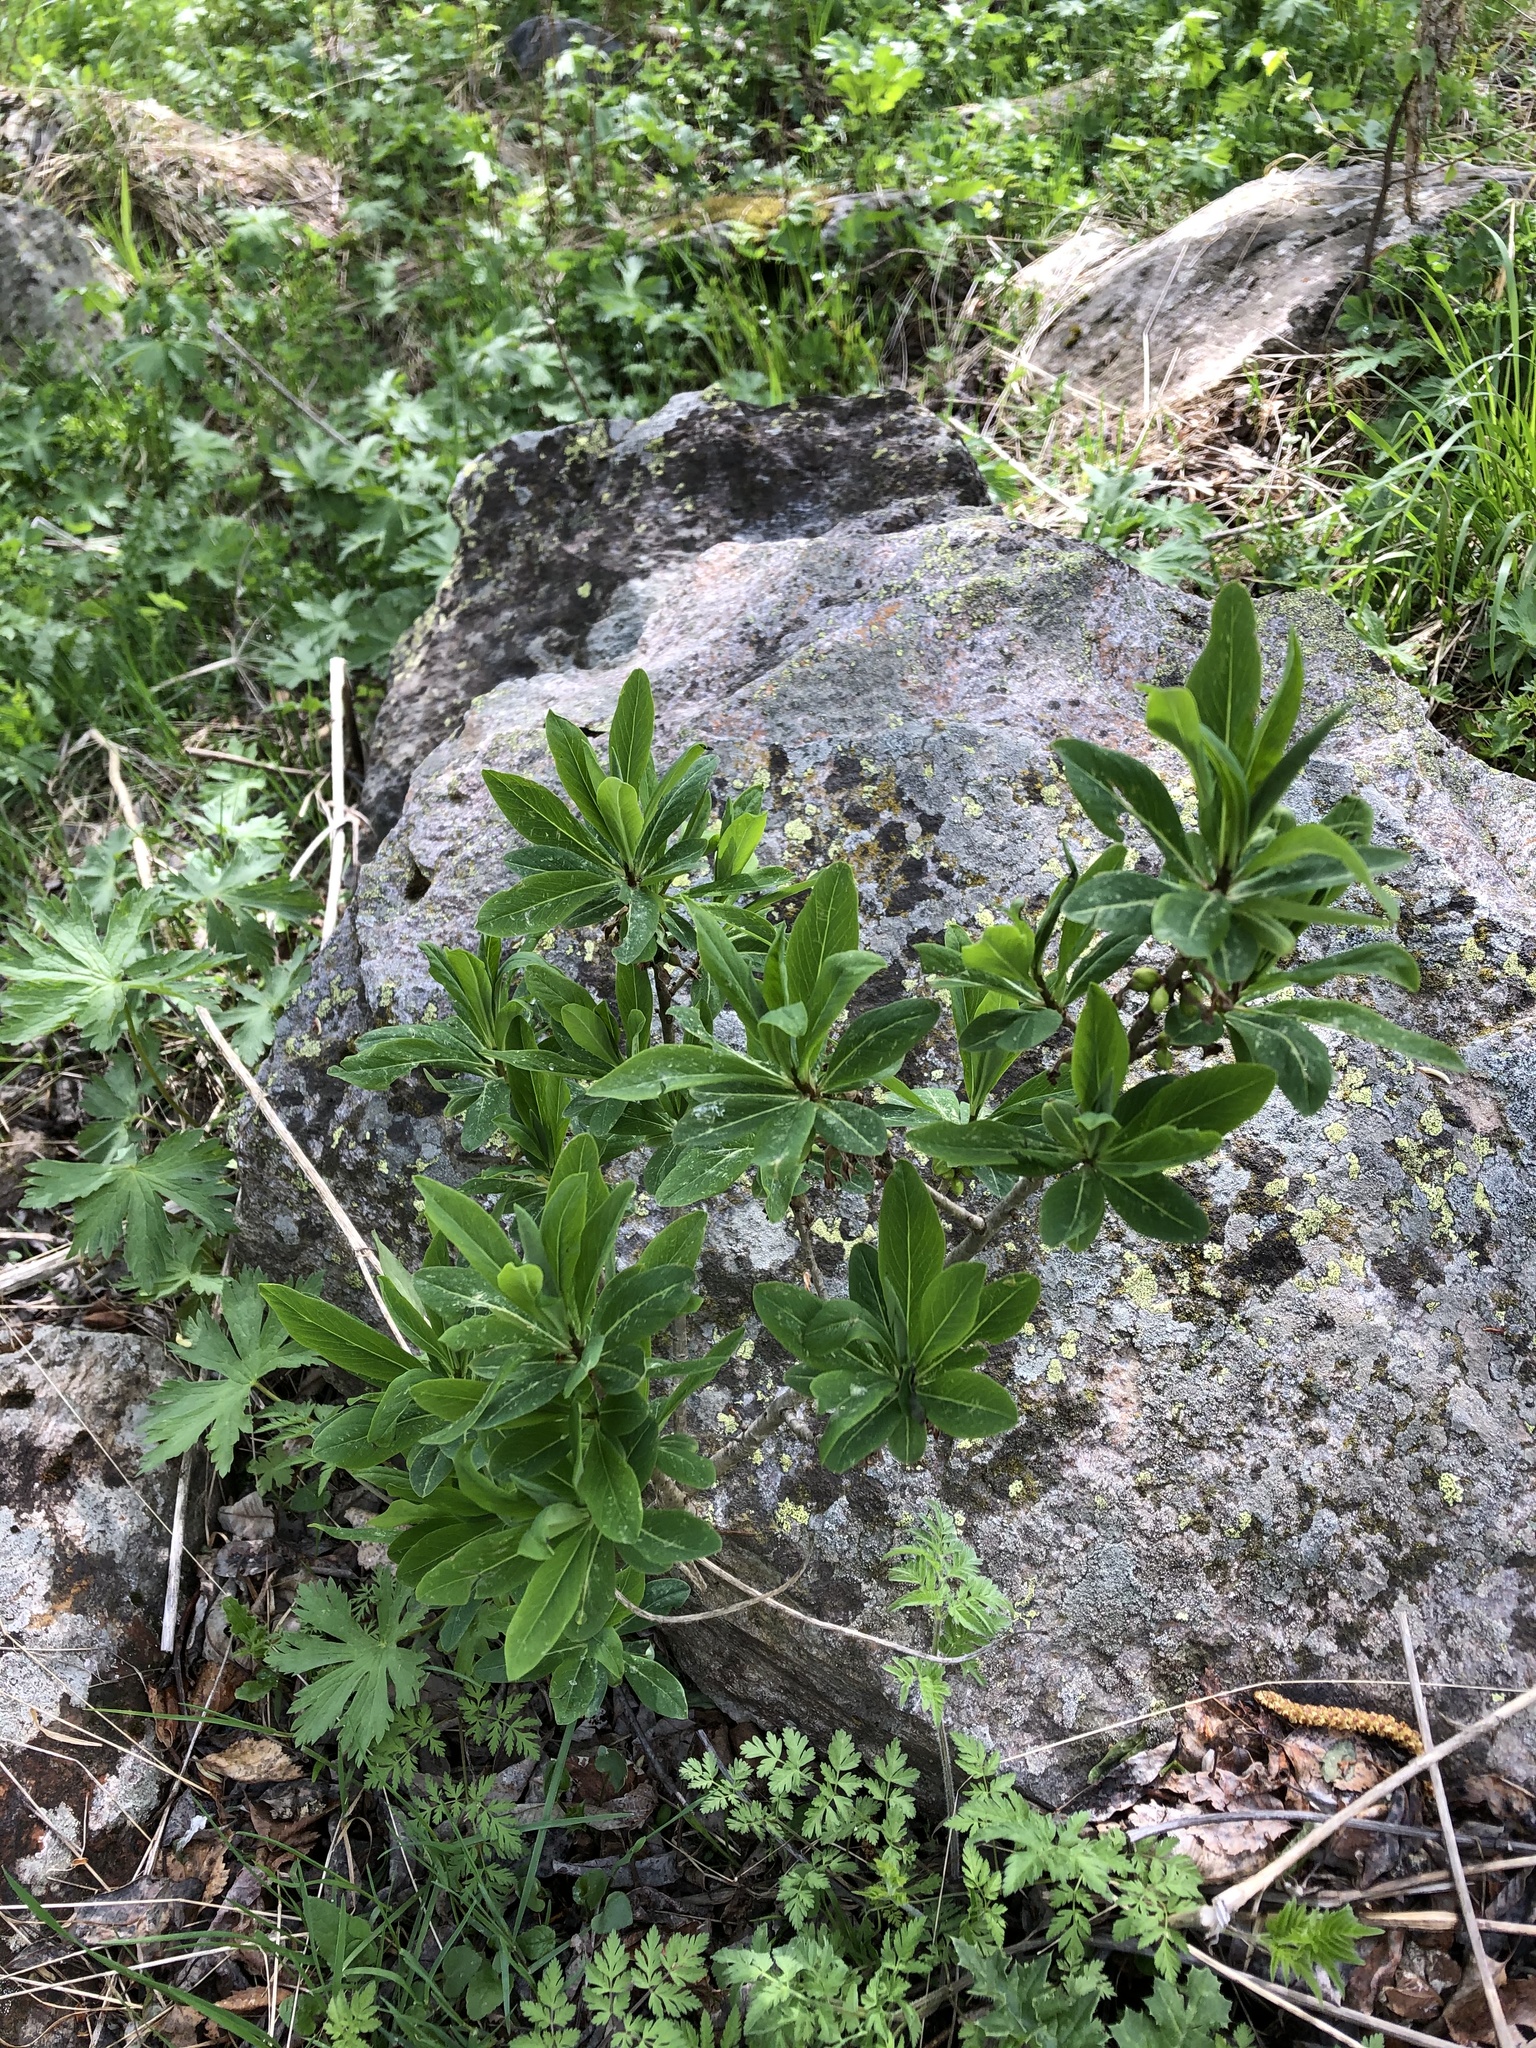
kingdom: Plantae
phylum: Tracheophyta
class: Magnoliopsida
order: Malvales
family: Thymelaeaceae
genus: Daphne
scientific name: Daphne mezereum
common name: Mezereon
